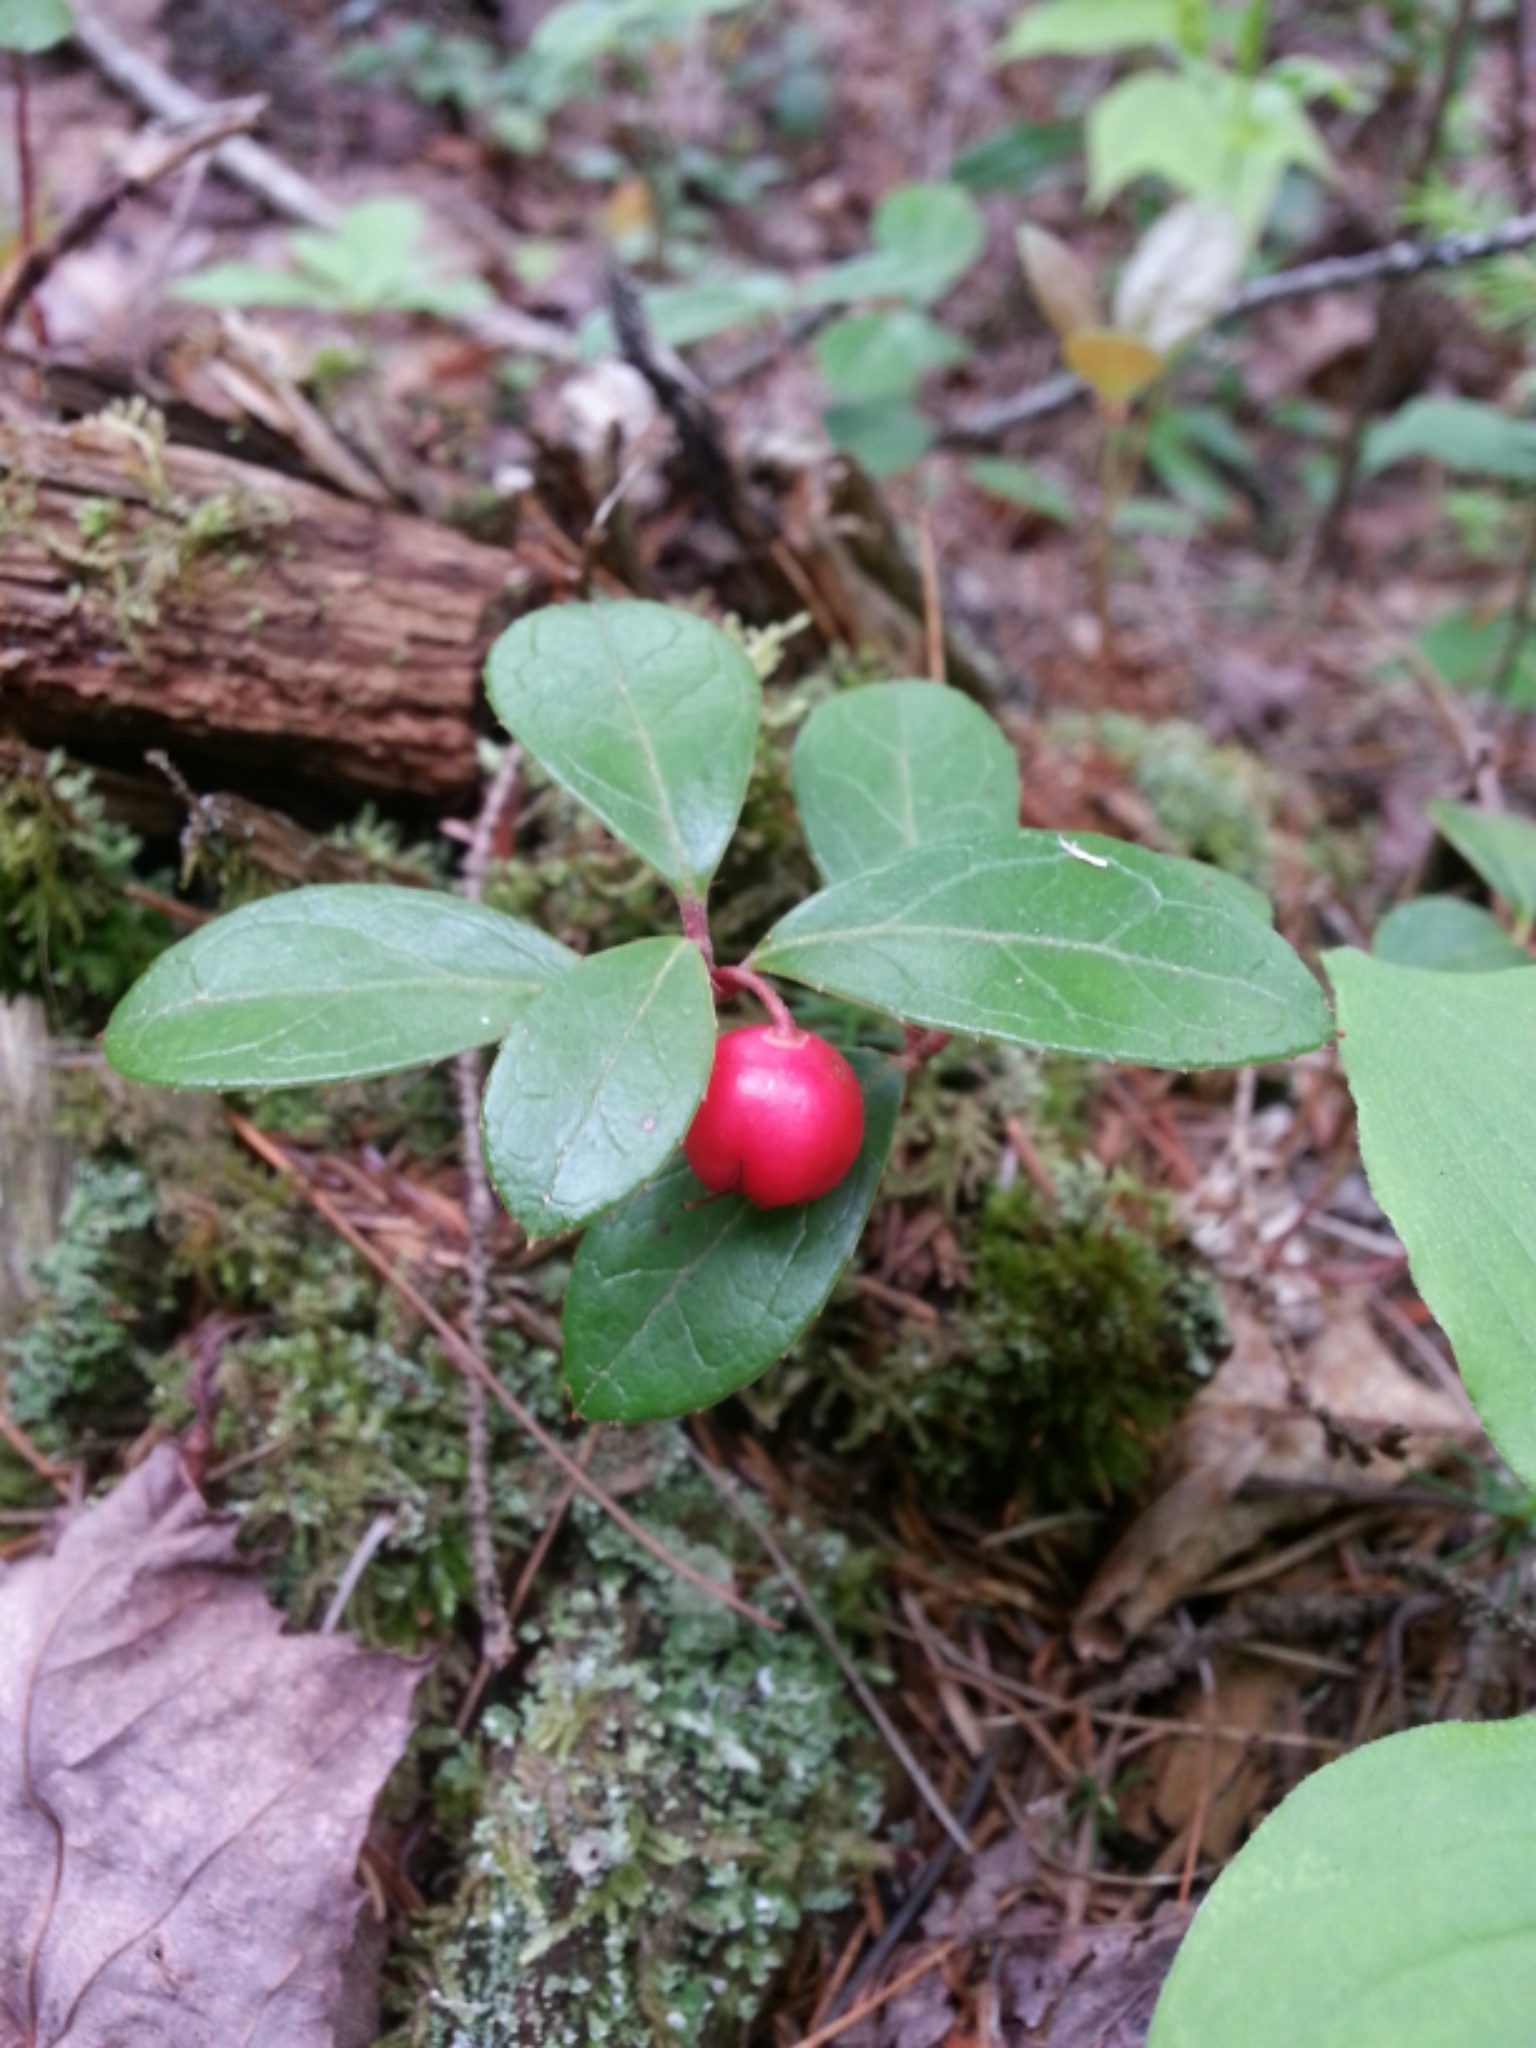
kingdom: Plantae
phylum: Tracheophyta
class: Magnoliopsida
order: Ericales
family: Ericaceae
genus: Gaultheria
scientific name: Gaultheria procumbens
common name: Checkerberry
